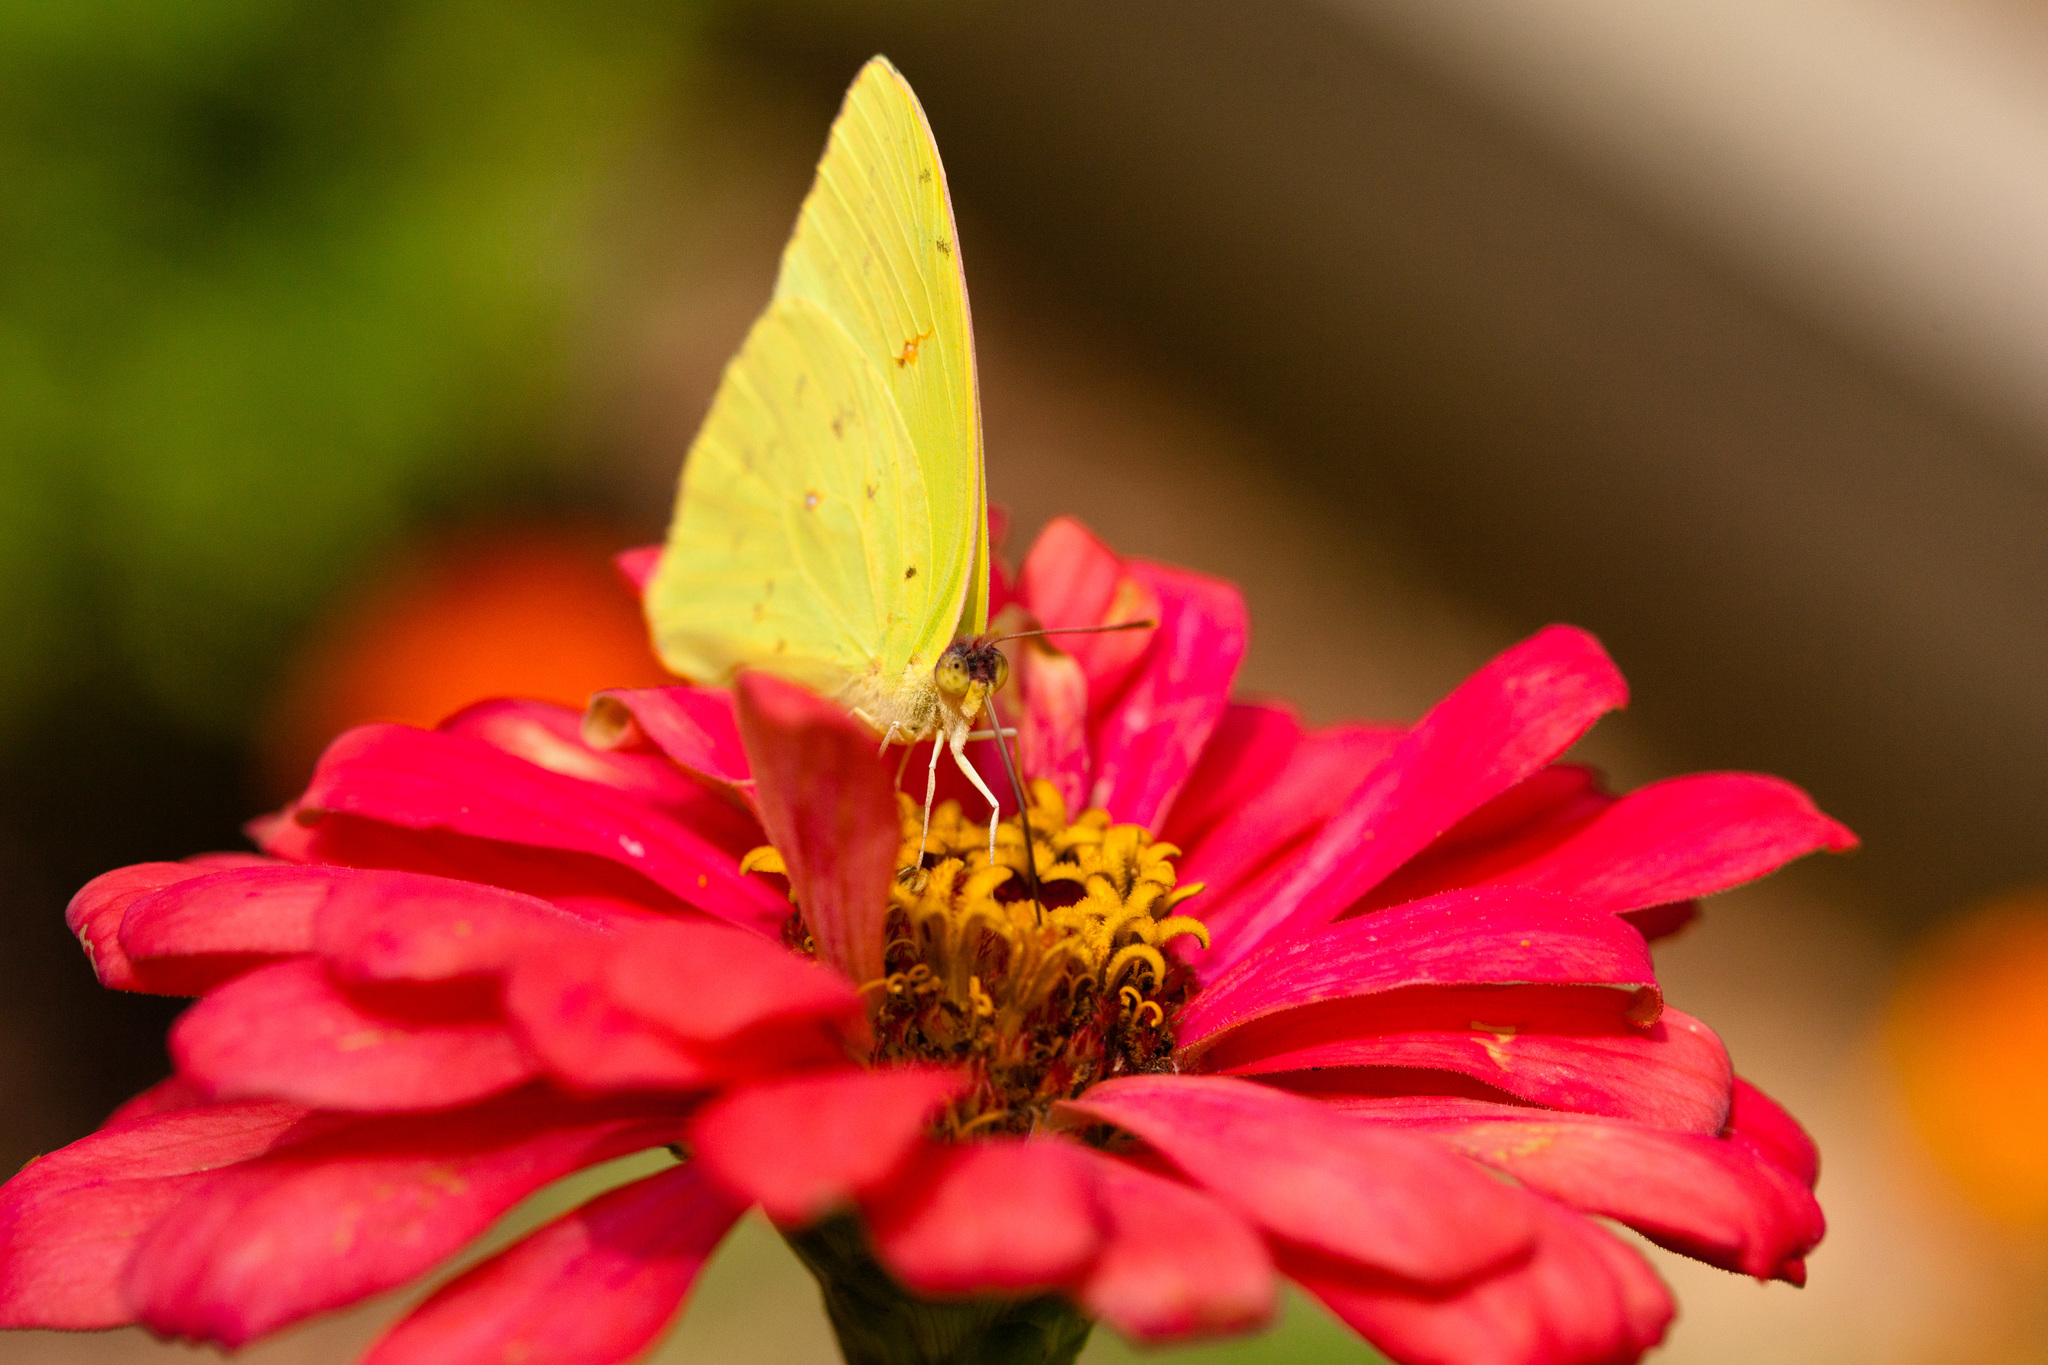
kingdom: Animalia
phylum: Arthropoda
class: Insecta
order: Lepidoptera
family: Pieridae
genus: Phoebis
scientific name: Phoebis sennae
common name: Cloudless sulphur
